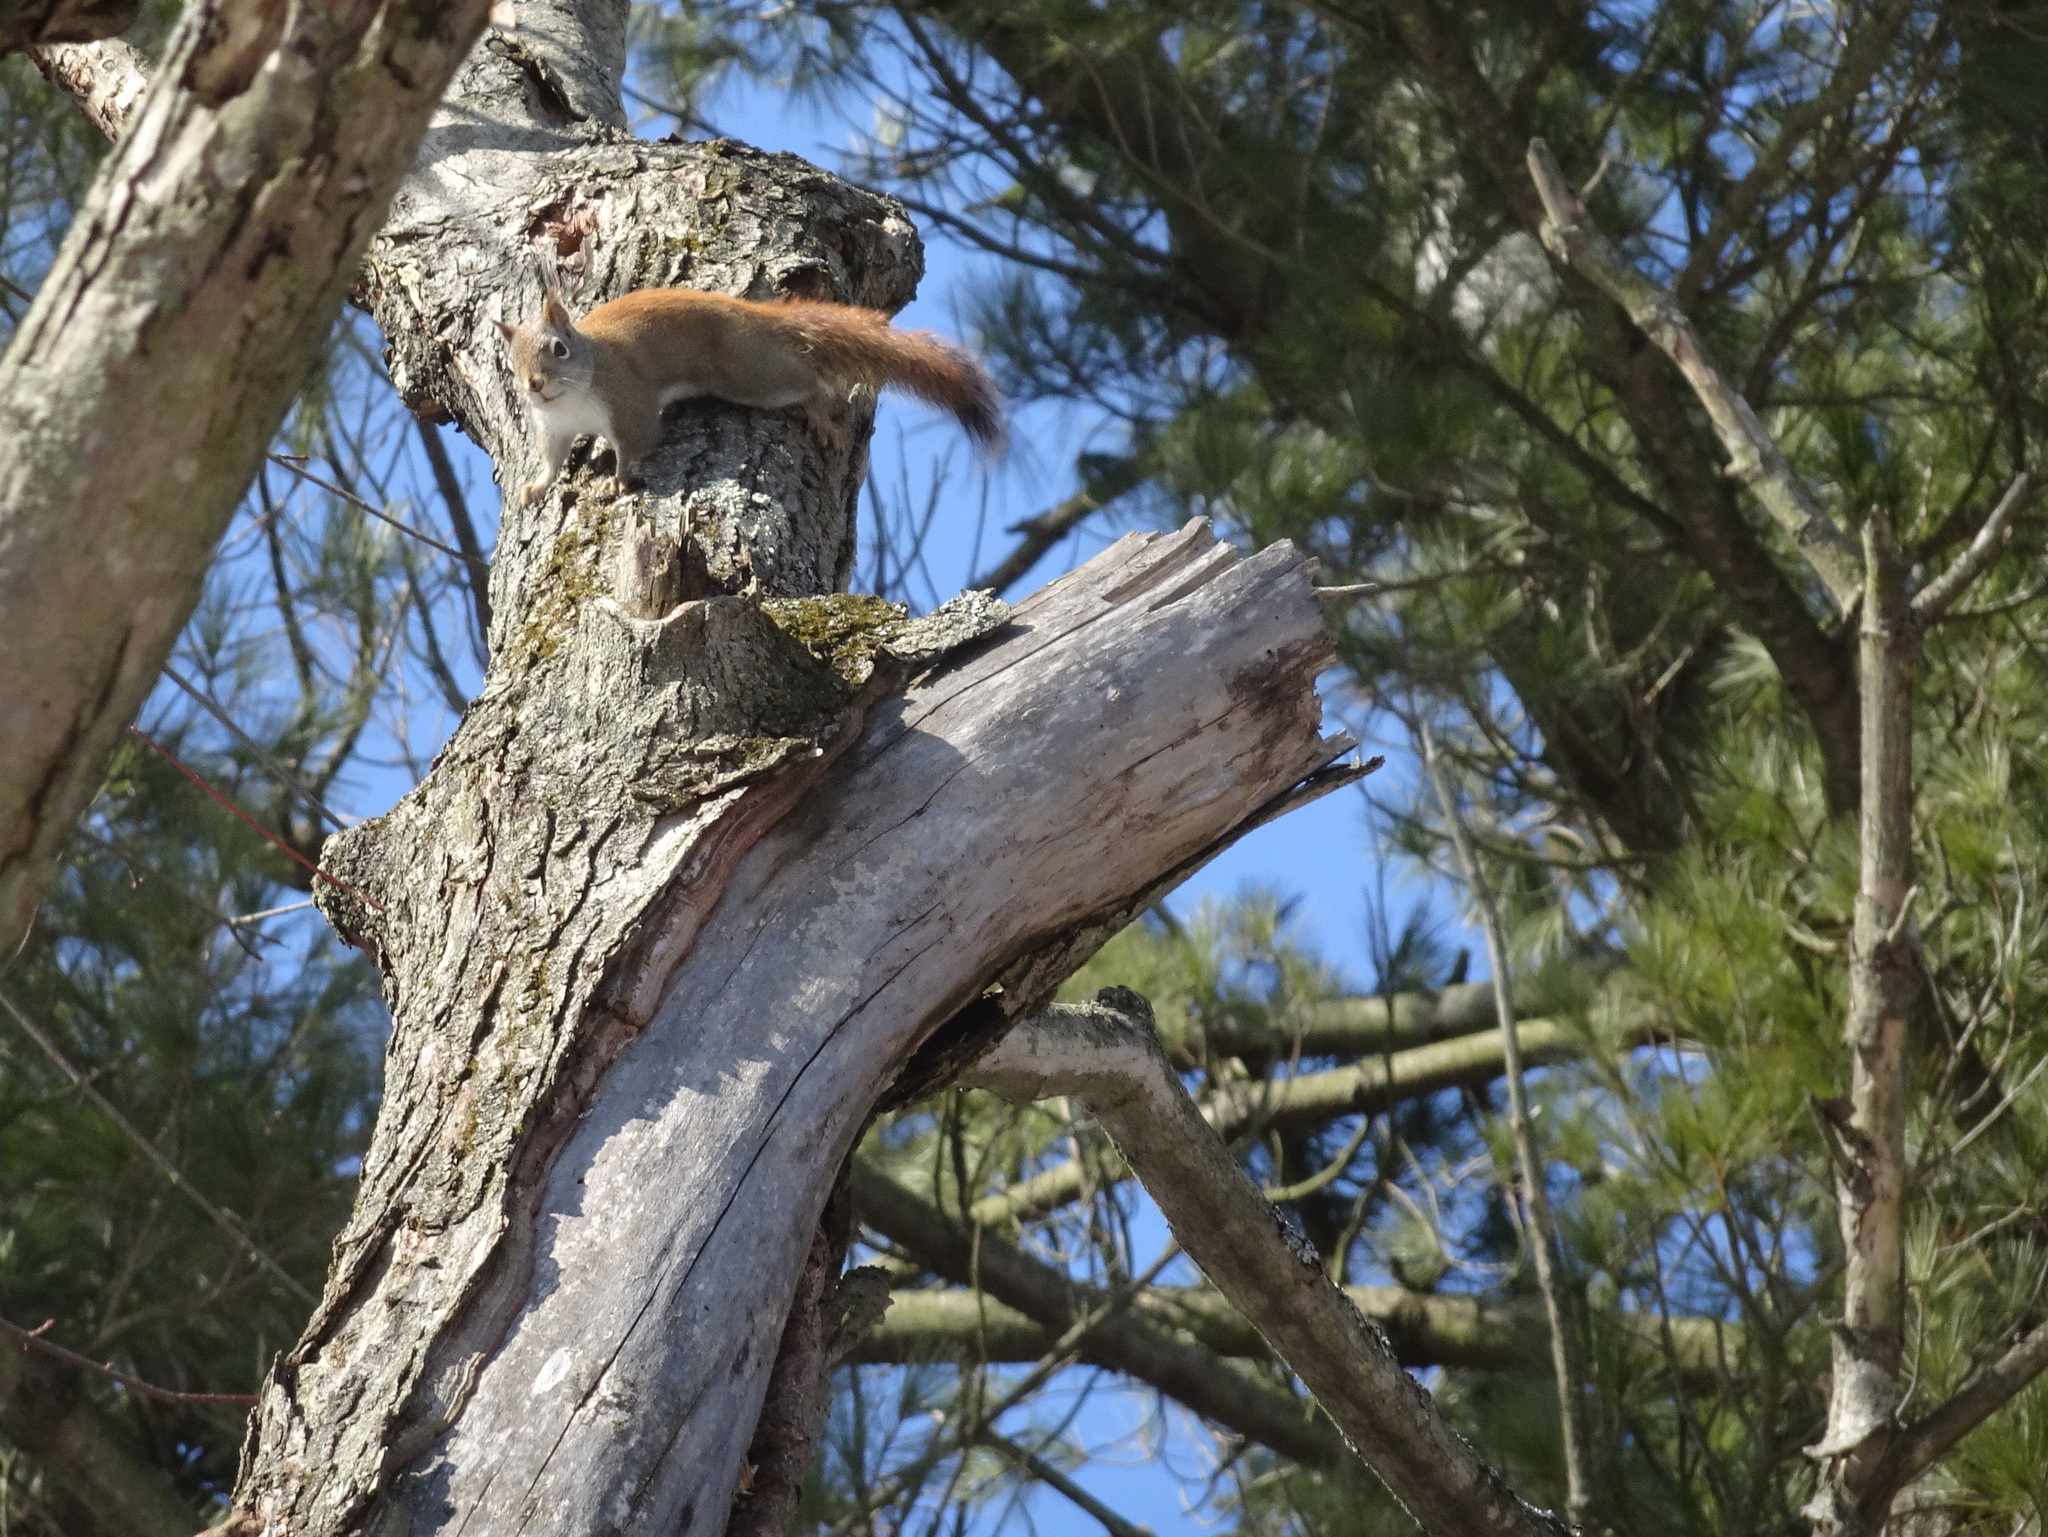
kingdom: Animalia
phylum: Chordata
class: Mammalia
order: Rodentia
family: Sciuridae
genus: Tamiasciurus
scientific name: Tamiasciurus hudsonicus
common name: Red squirrel
